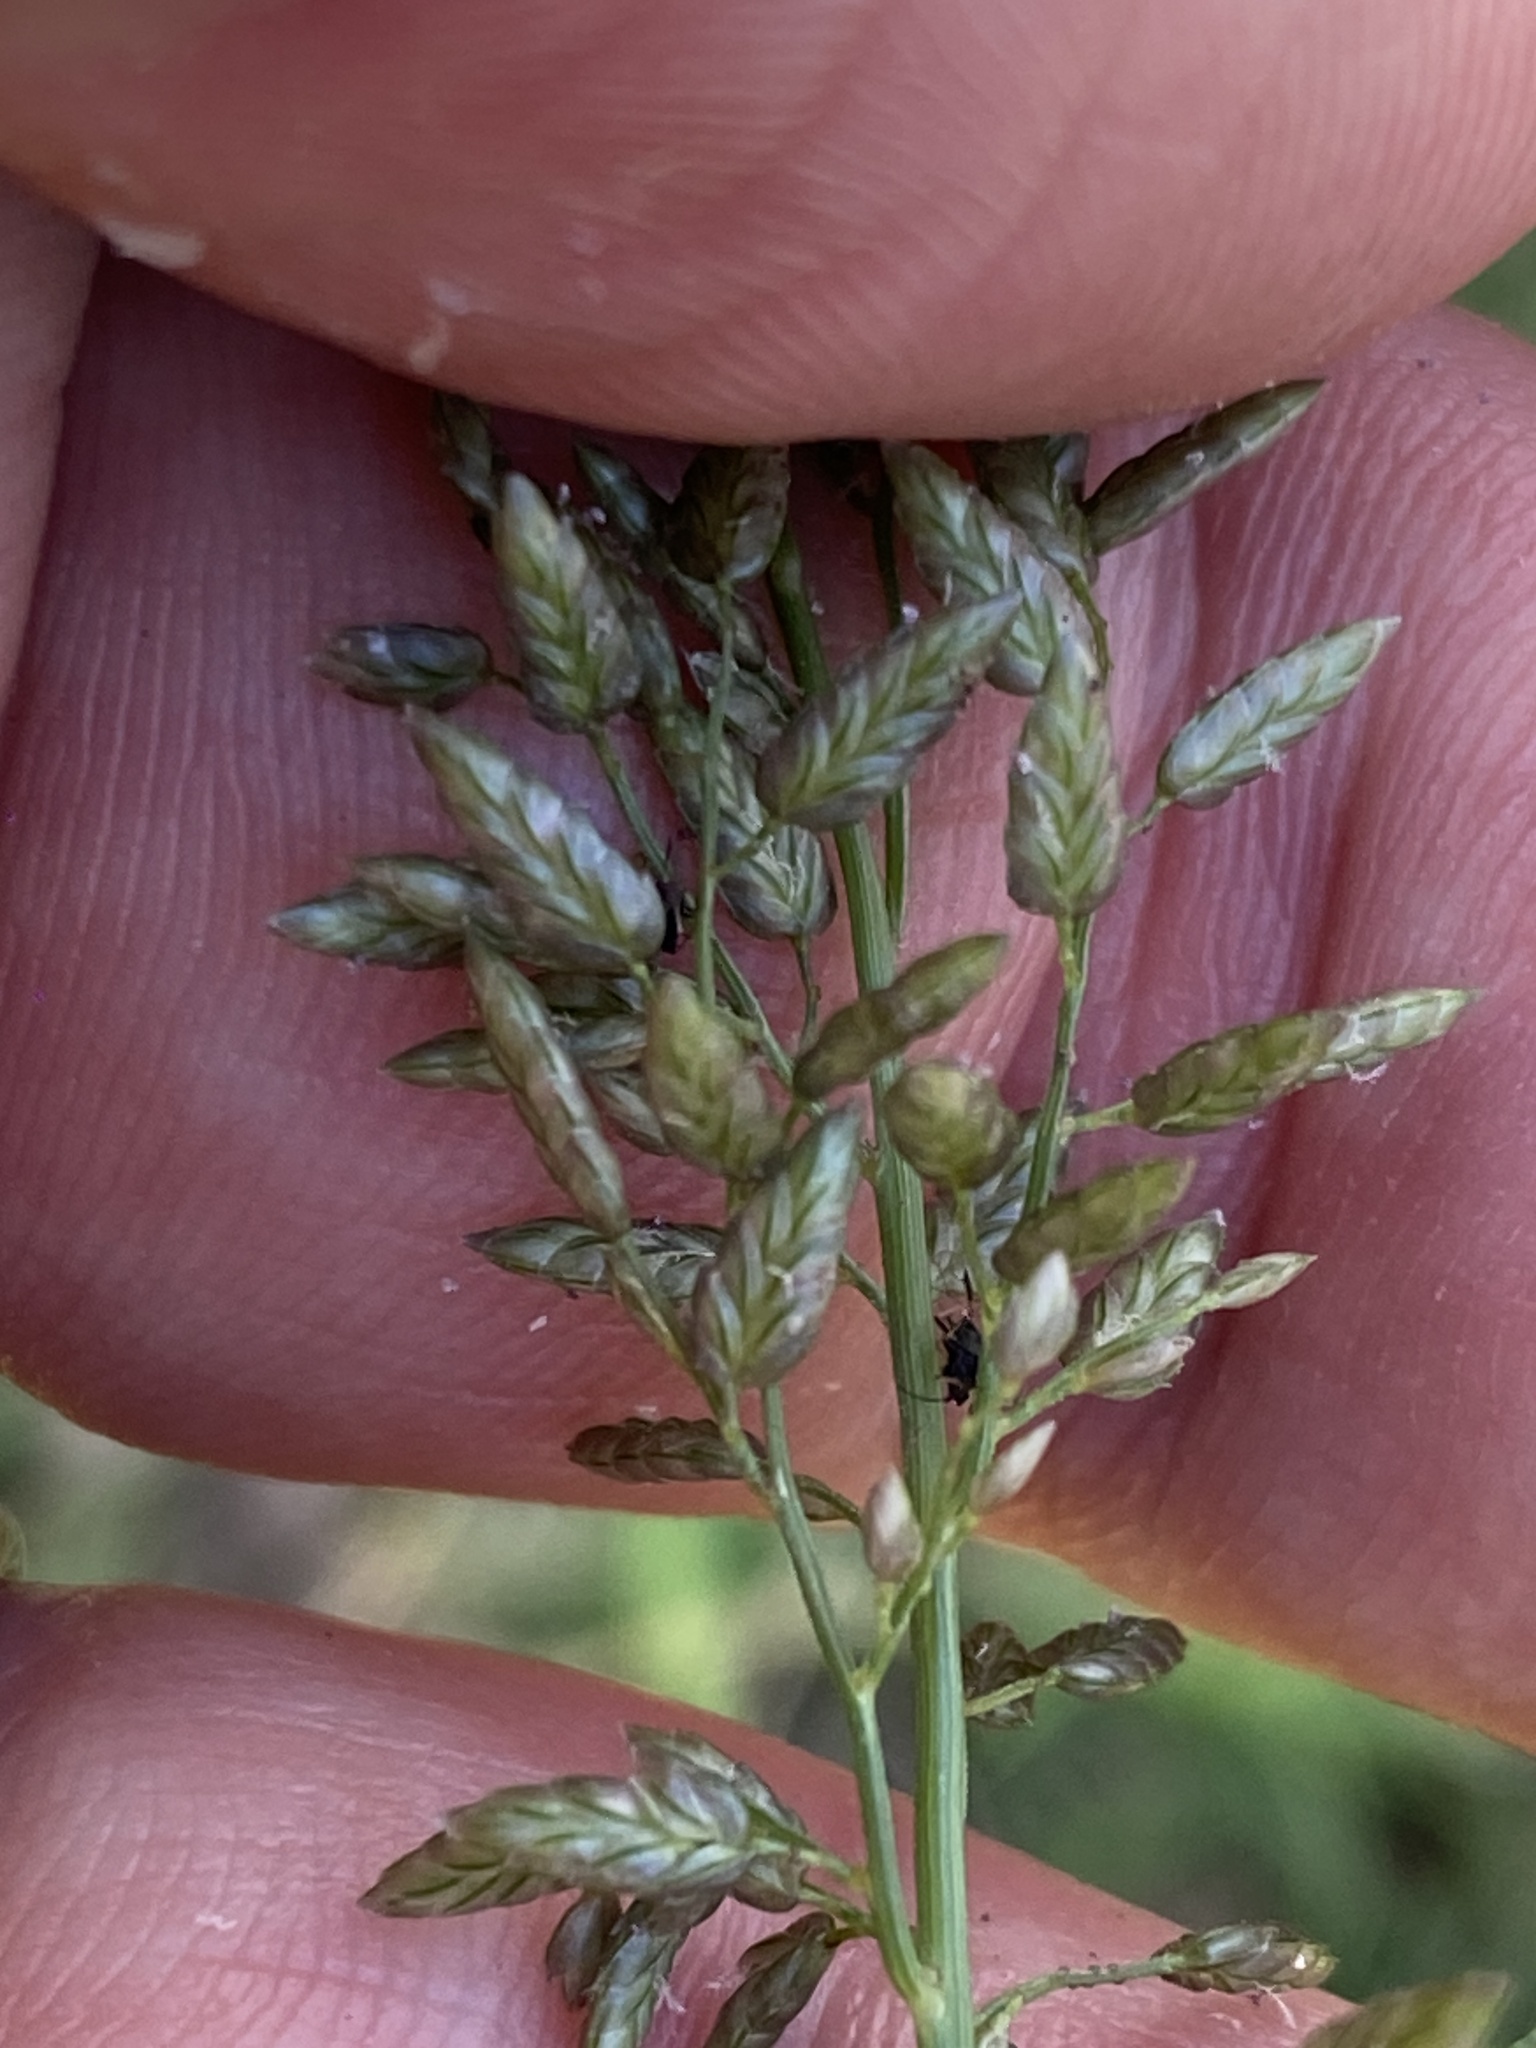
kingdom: Plantae
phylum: Tracheophyta
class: Liliopsida
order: Poales
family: Poaceae
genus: Eragrostis
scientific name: Eragrostis cilianensis
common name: Stinkgrass
